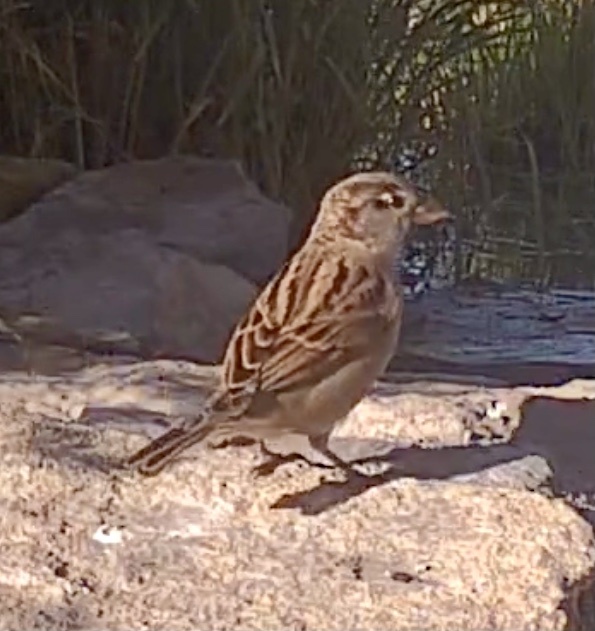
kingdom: Animalia
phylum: Chordata
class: Aves
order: Passeriformes
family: Passeridae
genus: Passer
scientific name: Passer domesticus
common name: House sparrow
